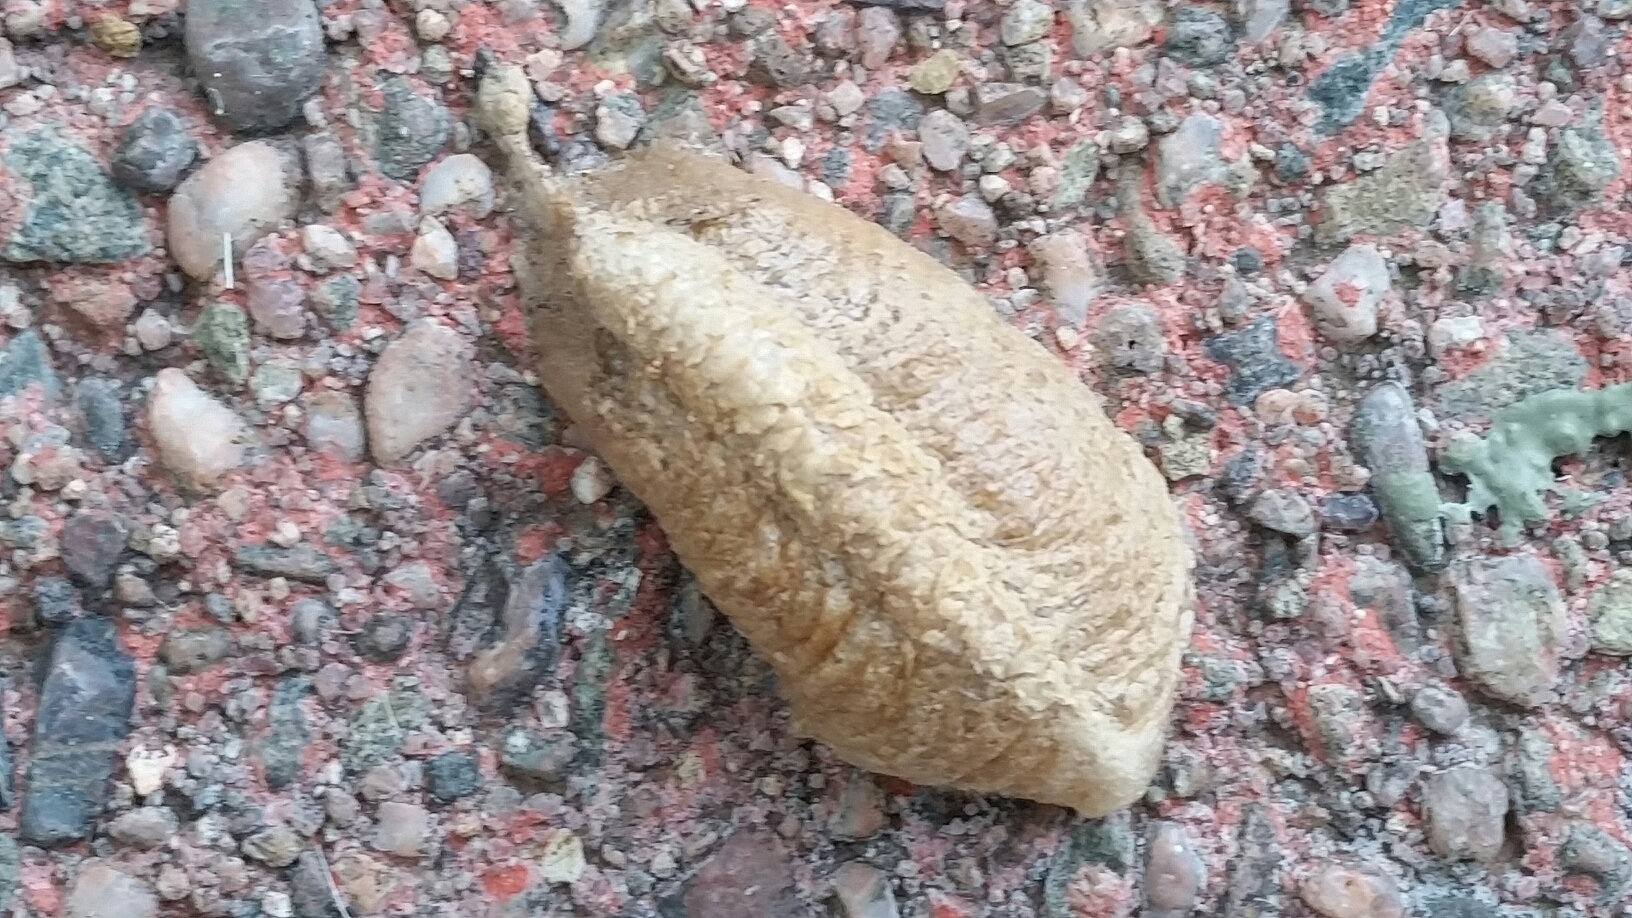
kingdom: Animalia
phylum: Arthropoda
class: Insecta
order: Mantodea
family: Mantidae
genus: Mantis
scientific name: Mantis religiosa
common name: Praying mantis
